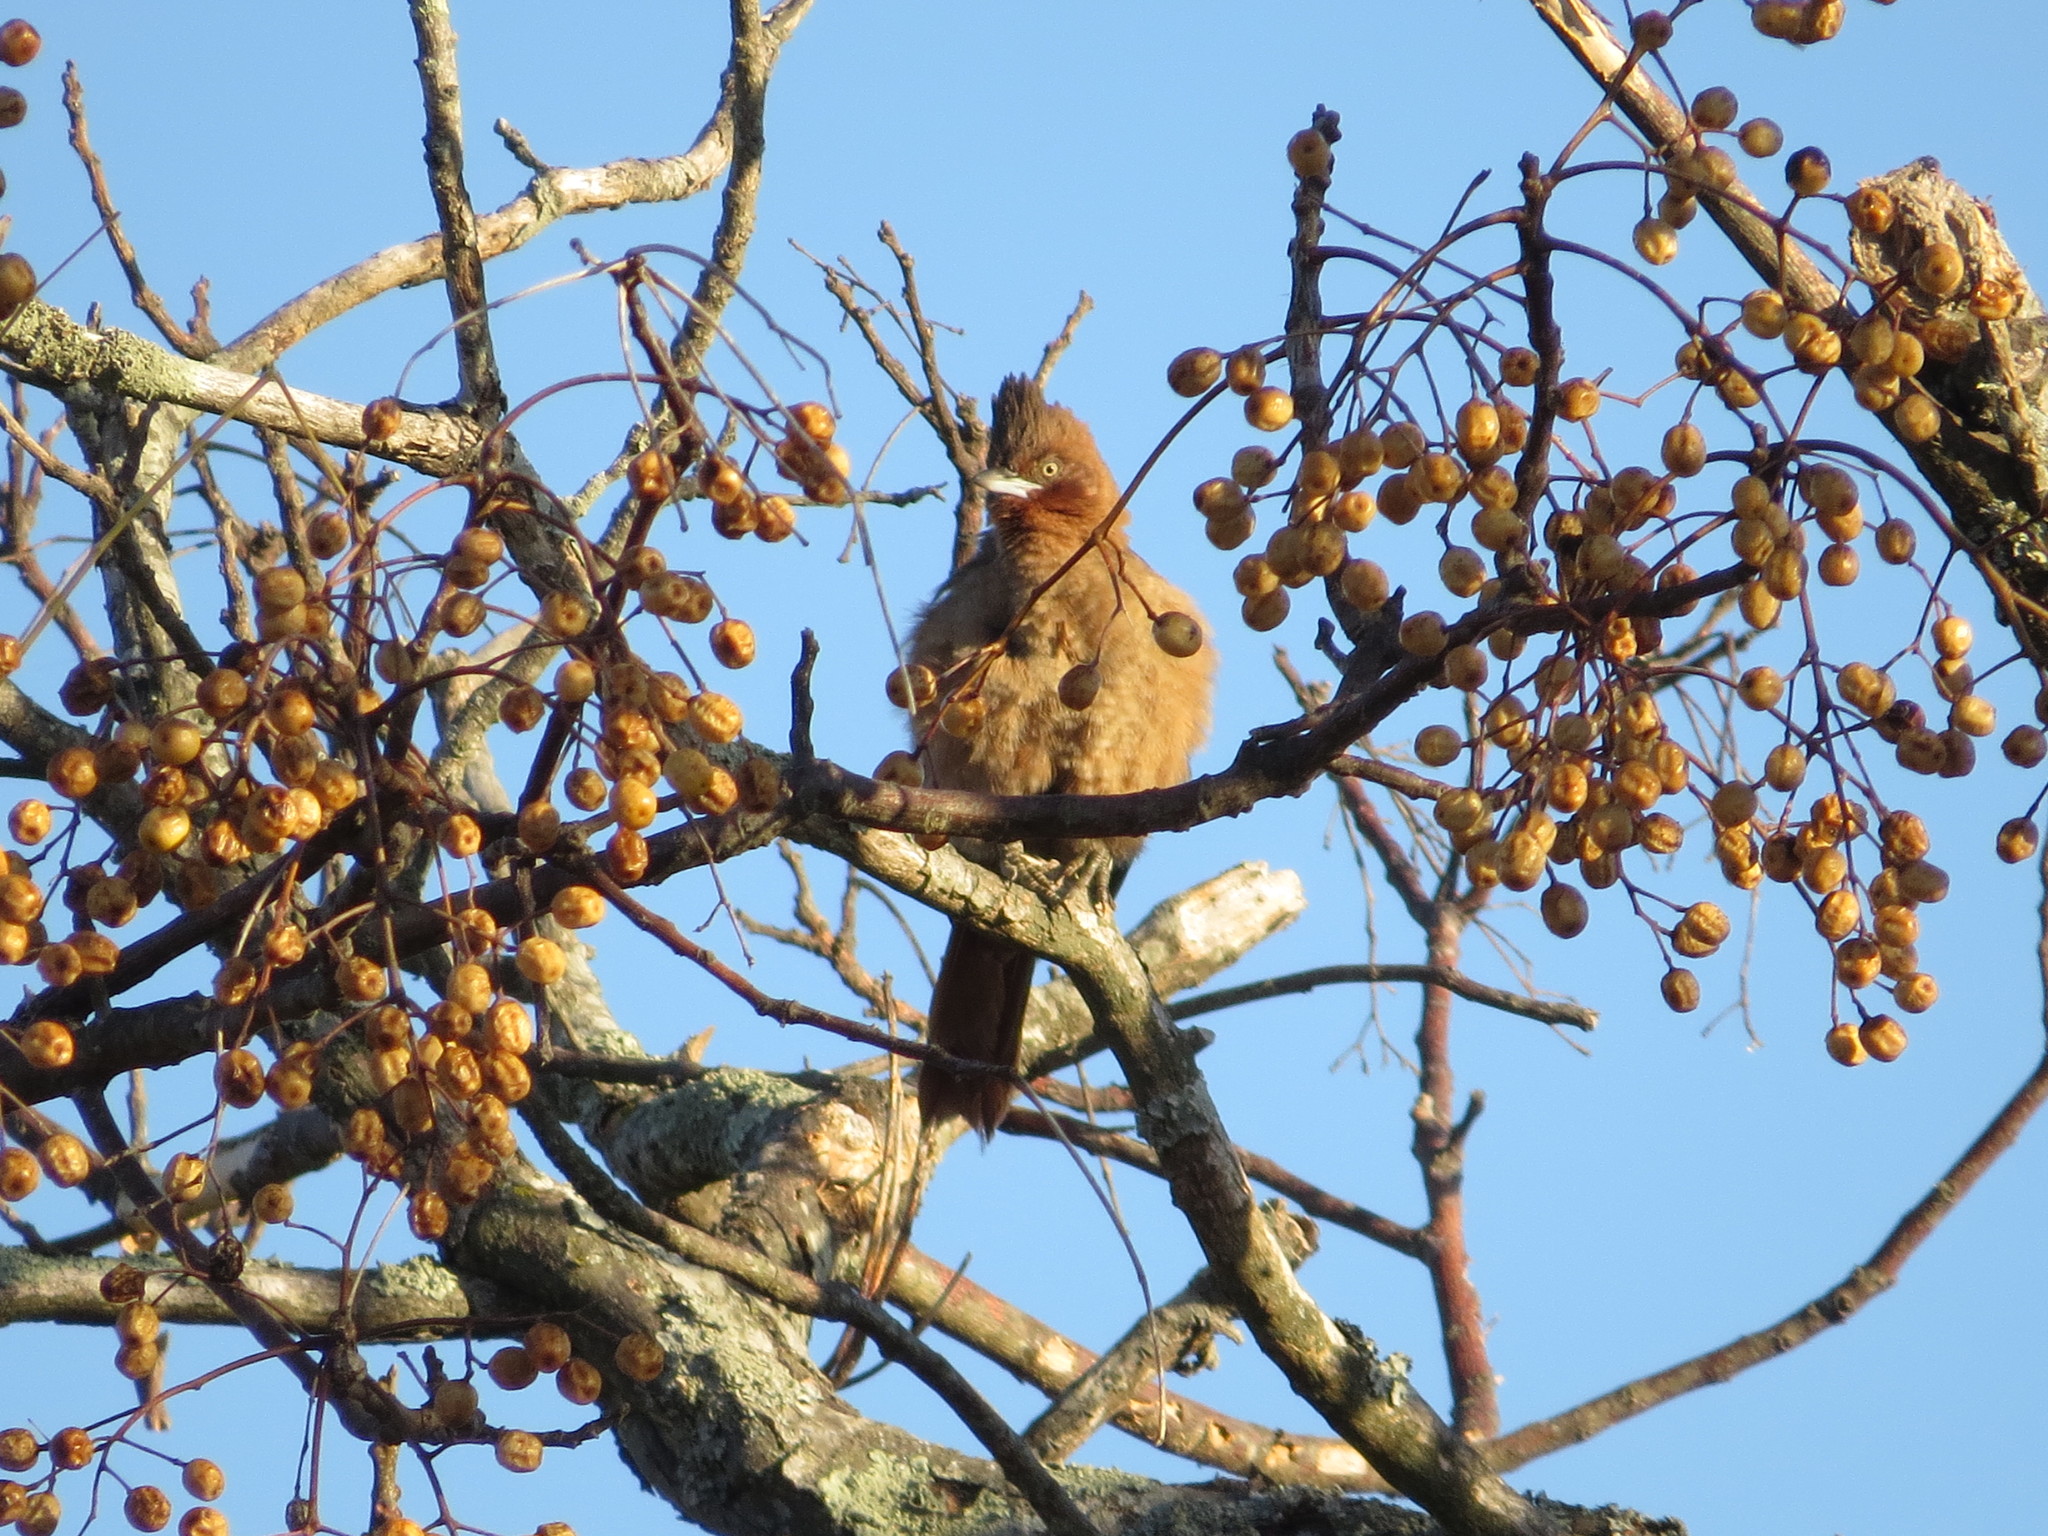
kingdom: Animalia
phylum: Chordata
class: Aves
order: Passeriformes
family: Furnariidae
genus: Pseudoseisura
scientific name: Pseudoseisura lophotes
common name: Brown cacholote
